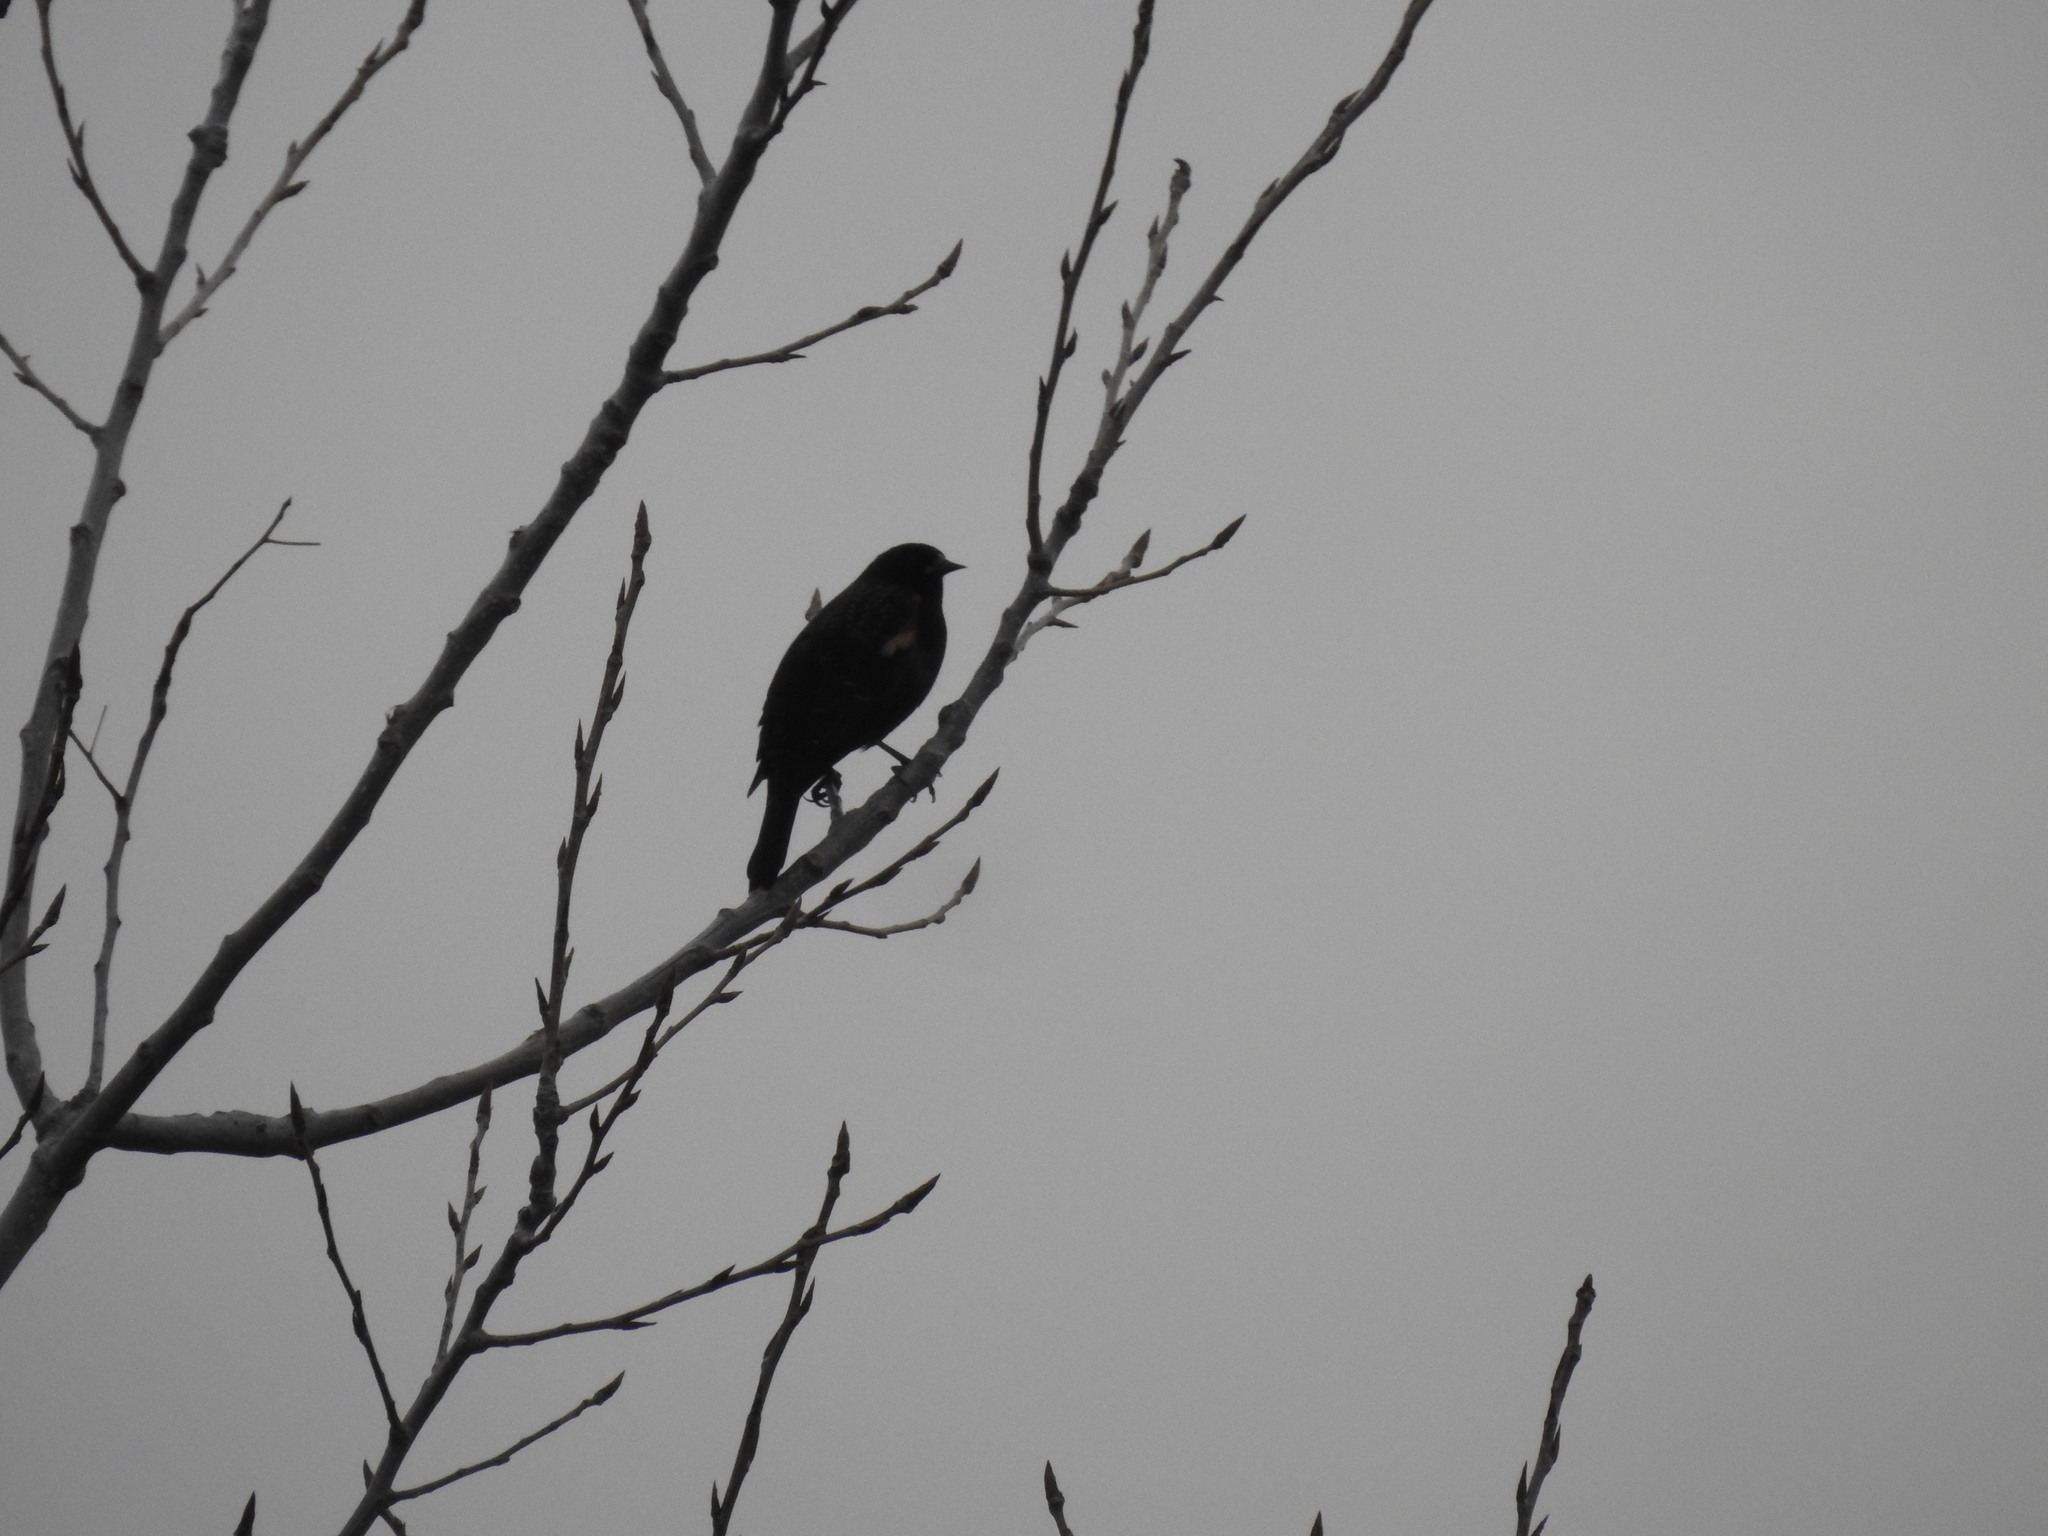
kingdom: Animalia
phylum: Chordata
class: Aves
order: Passeriformes
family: Icteridae
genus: Agelaius
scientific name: Agelaius phoeniceus
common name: Red-winged blackbird
